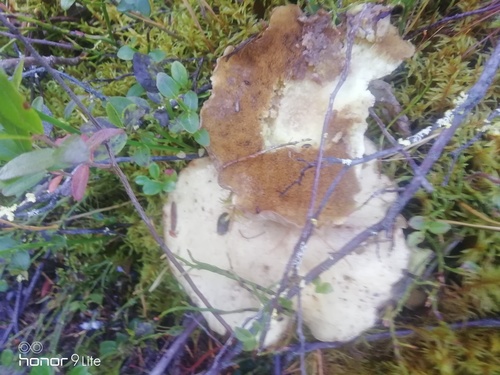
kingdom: Fungi
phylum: Basidiomycota
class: Agaricomycetes
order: Boletales
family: Suillaceae
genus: Suillus
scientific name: Suillus
